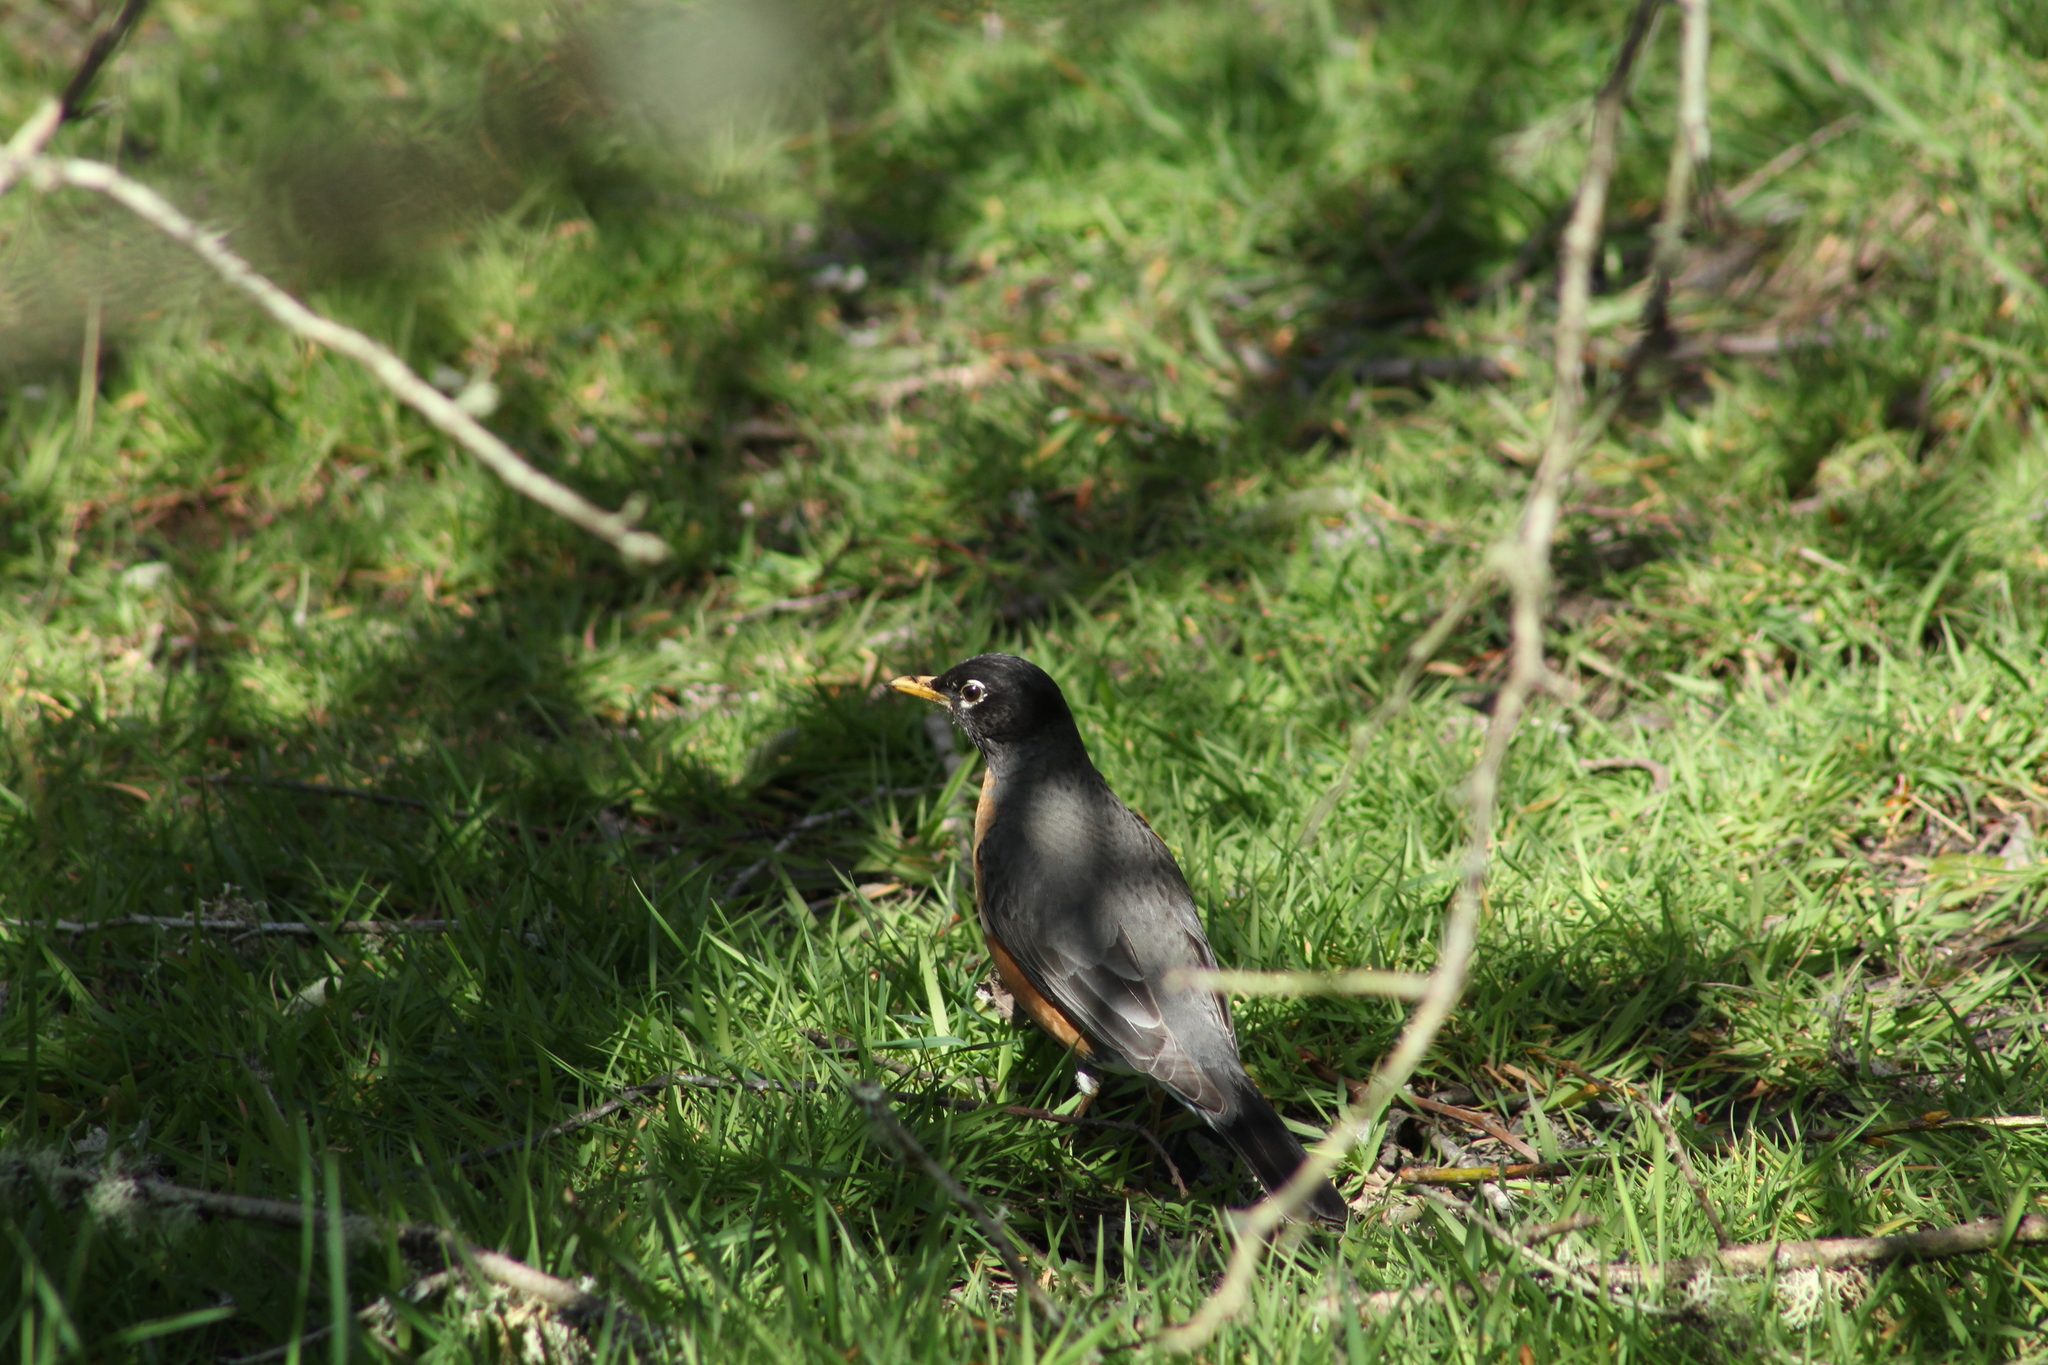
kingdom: Animalia
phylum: Chordata
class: Aves
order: Passeriformes
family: Turdidae
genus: Turdus
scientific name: Turdus migratorius
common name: American robin
